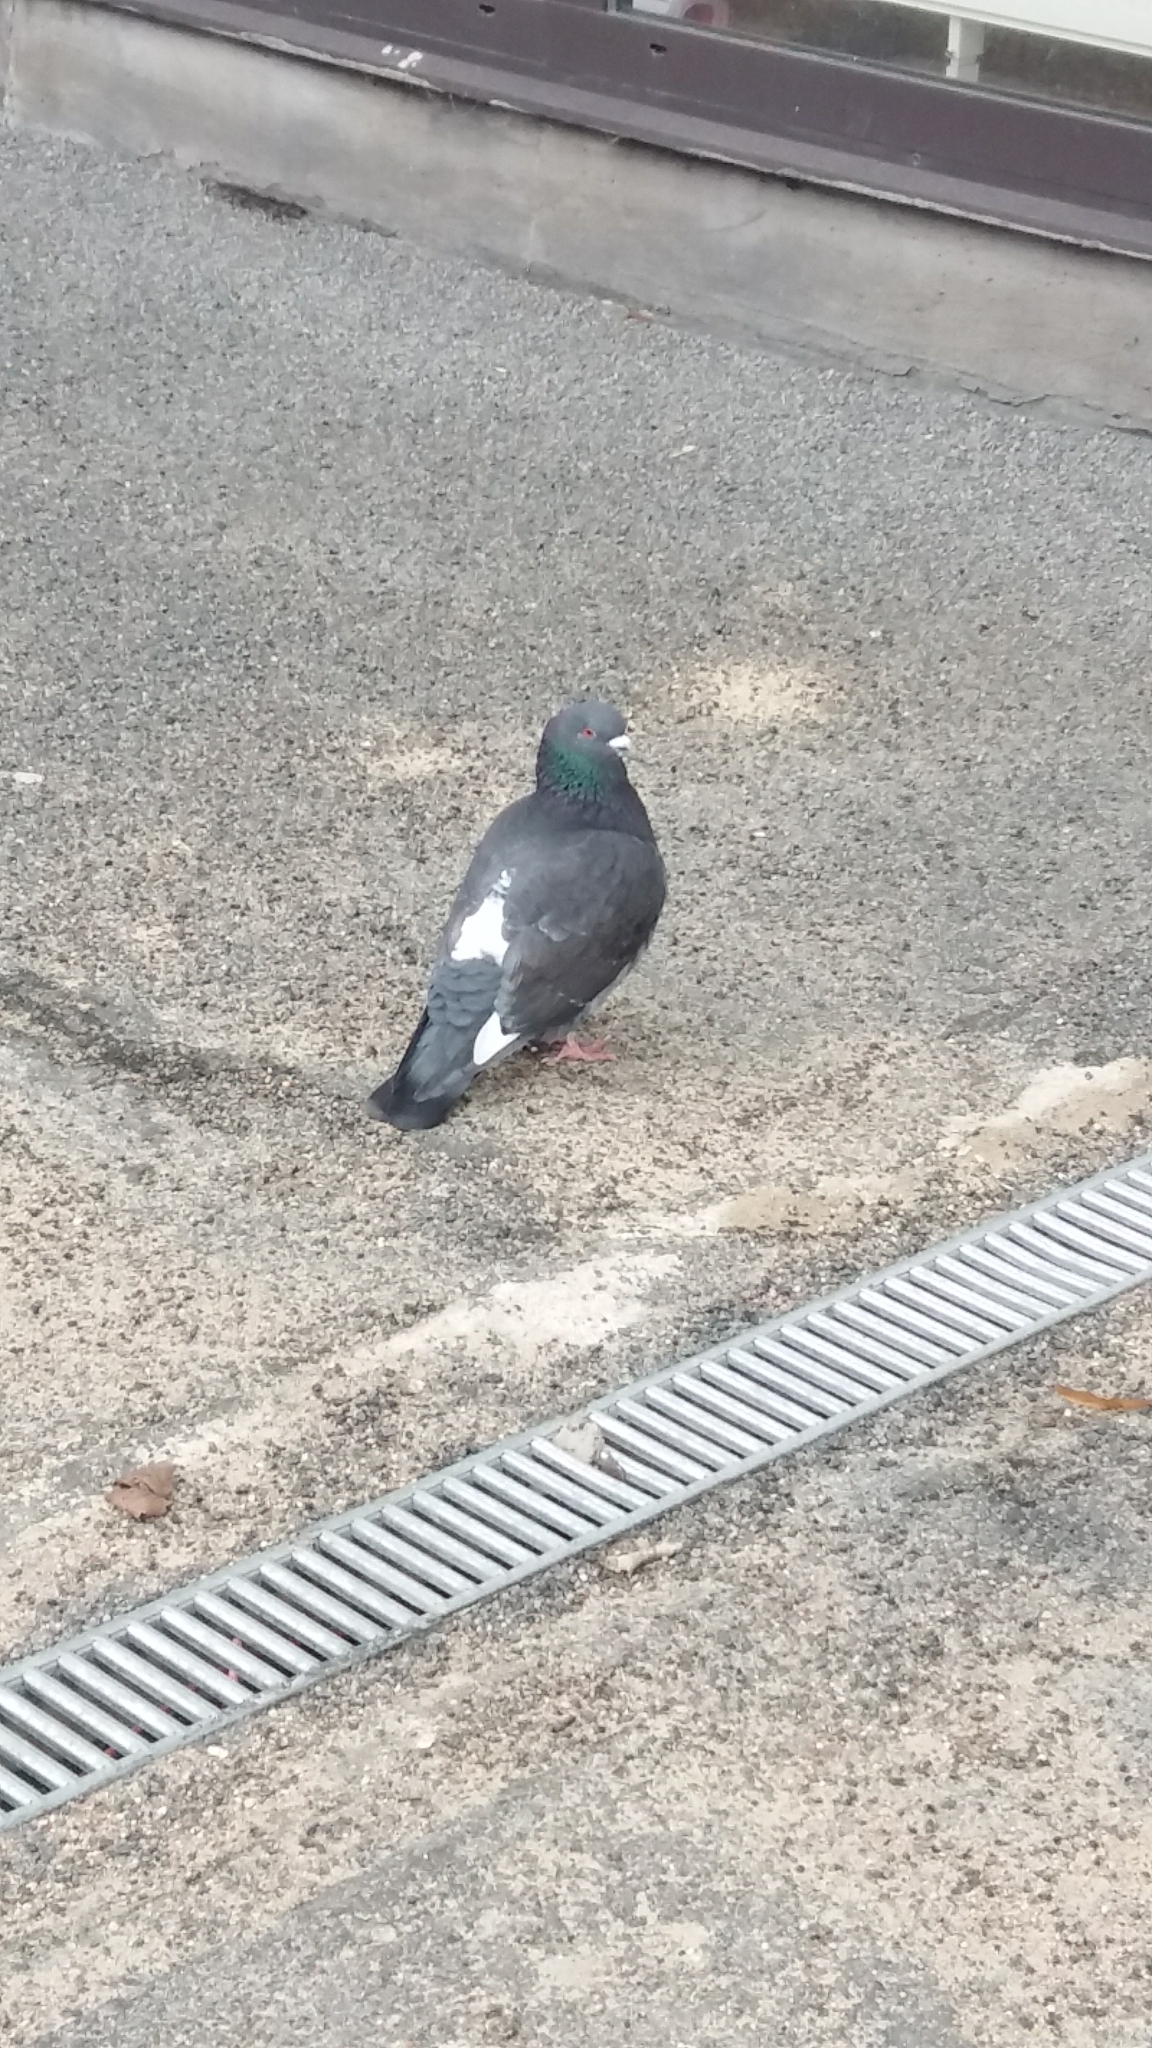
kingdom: Animalia
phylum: Chordata
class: Aves
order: Columbiformes
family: Columbidae
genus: Columba
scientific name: Columba livia
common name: Rock pigeon
